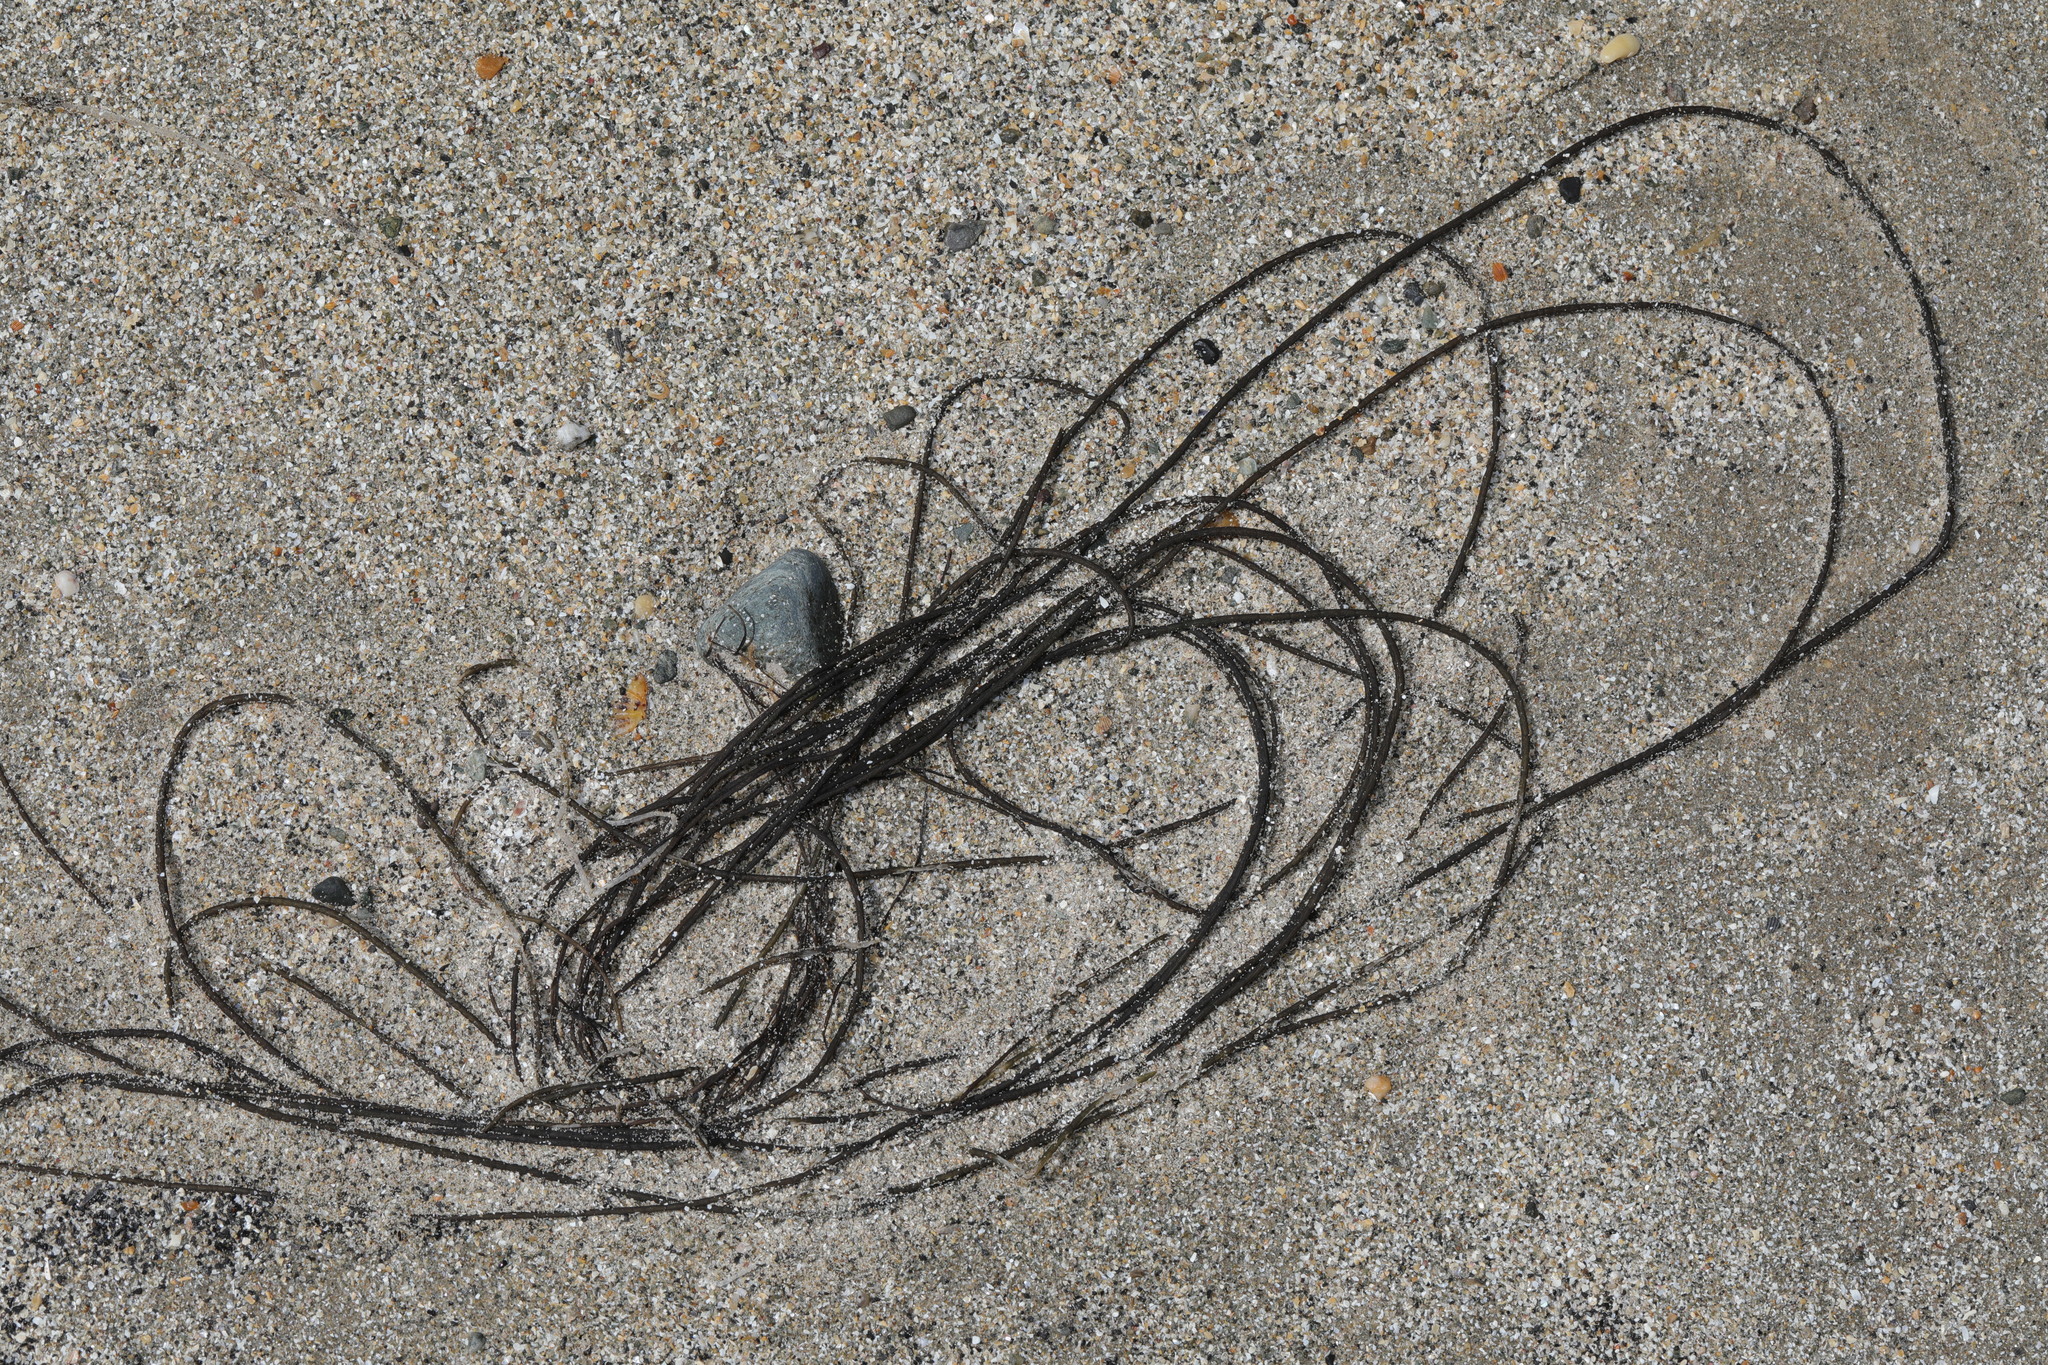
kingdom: Chromista
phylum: Ochrophyta
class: Phaeophyceae
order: Laminariales
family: Chordaceae
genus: Chorda
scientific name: Chorda filum
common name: Mermaid's tresses
